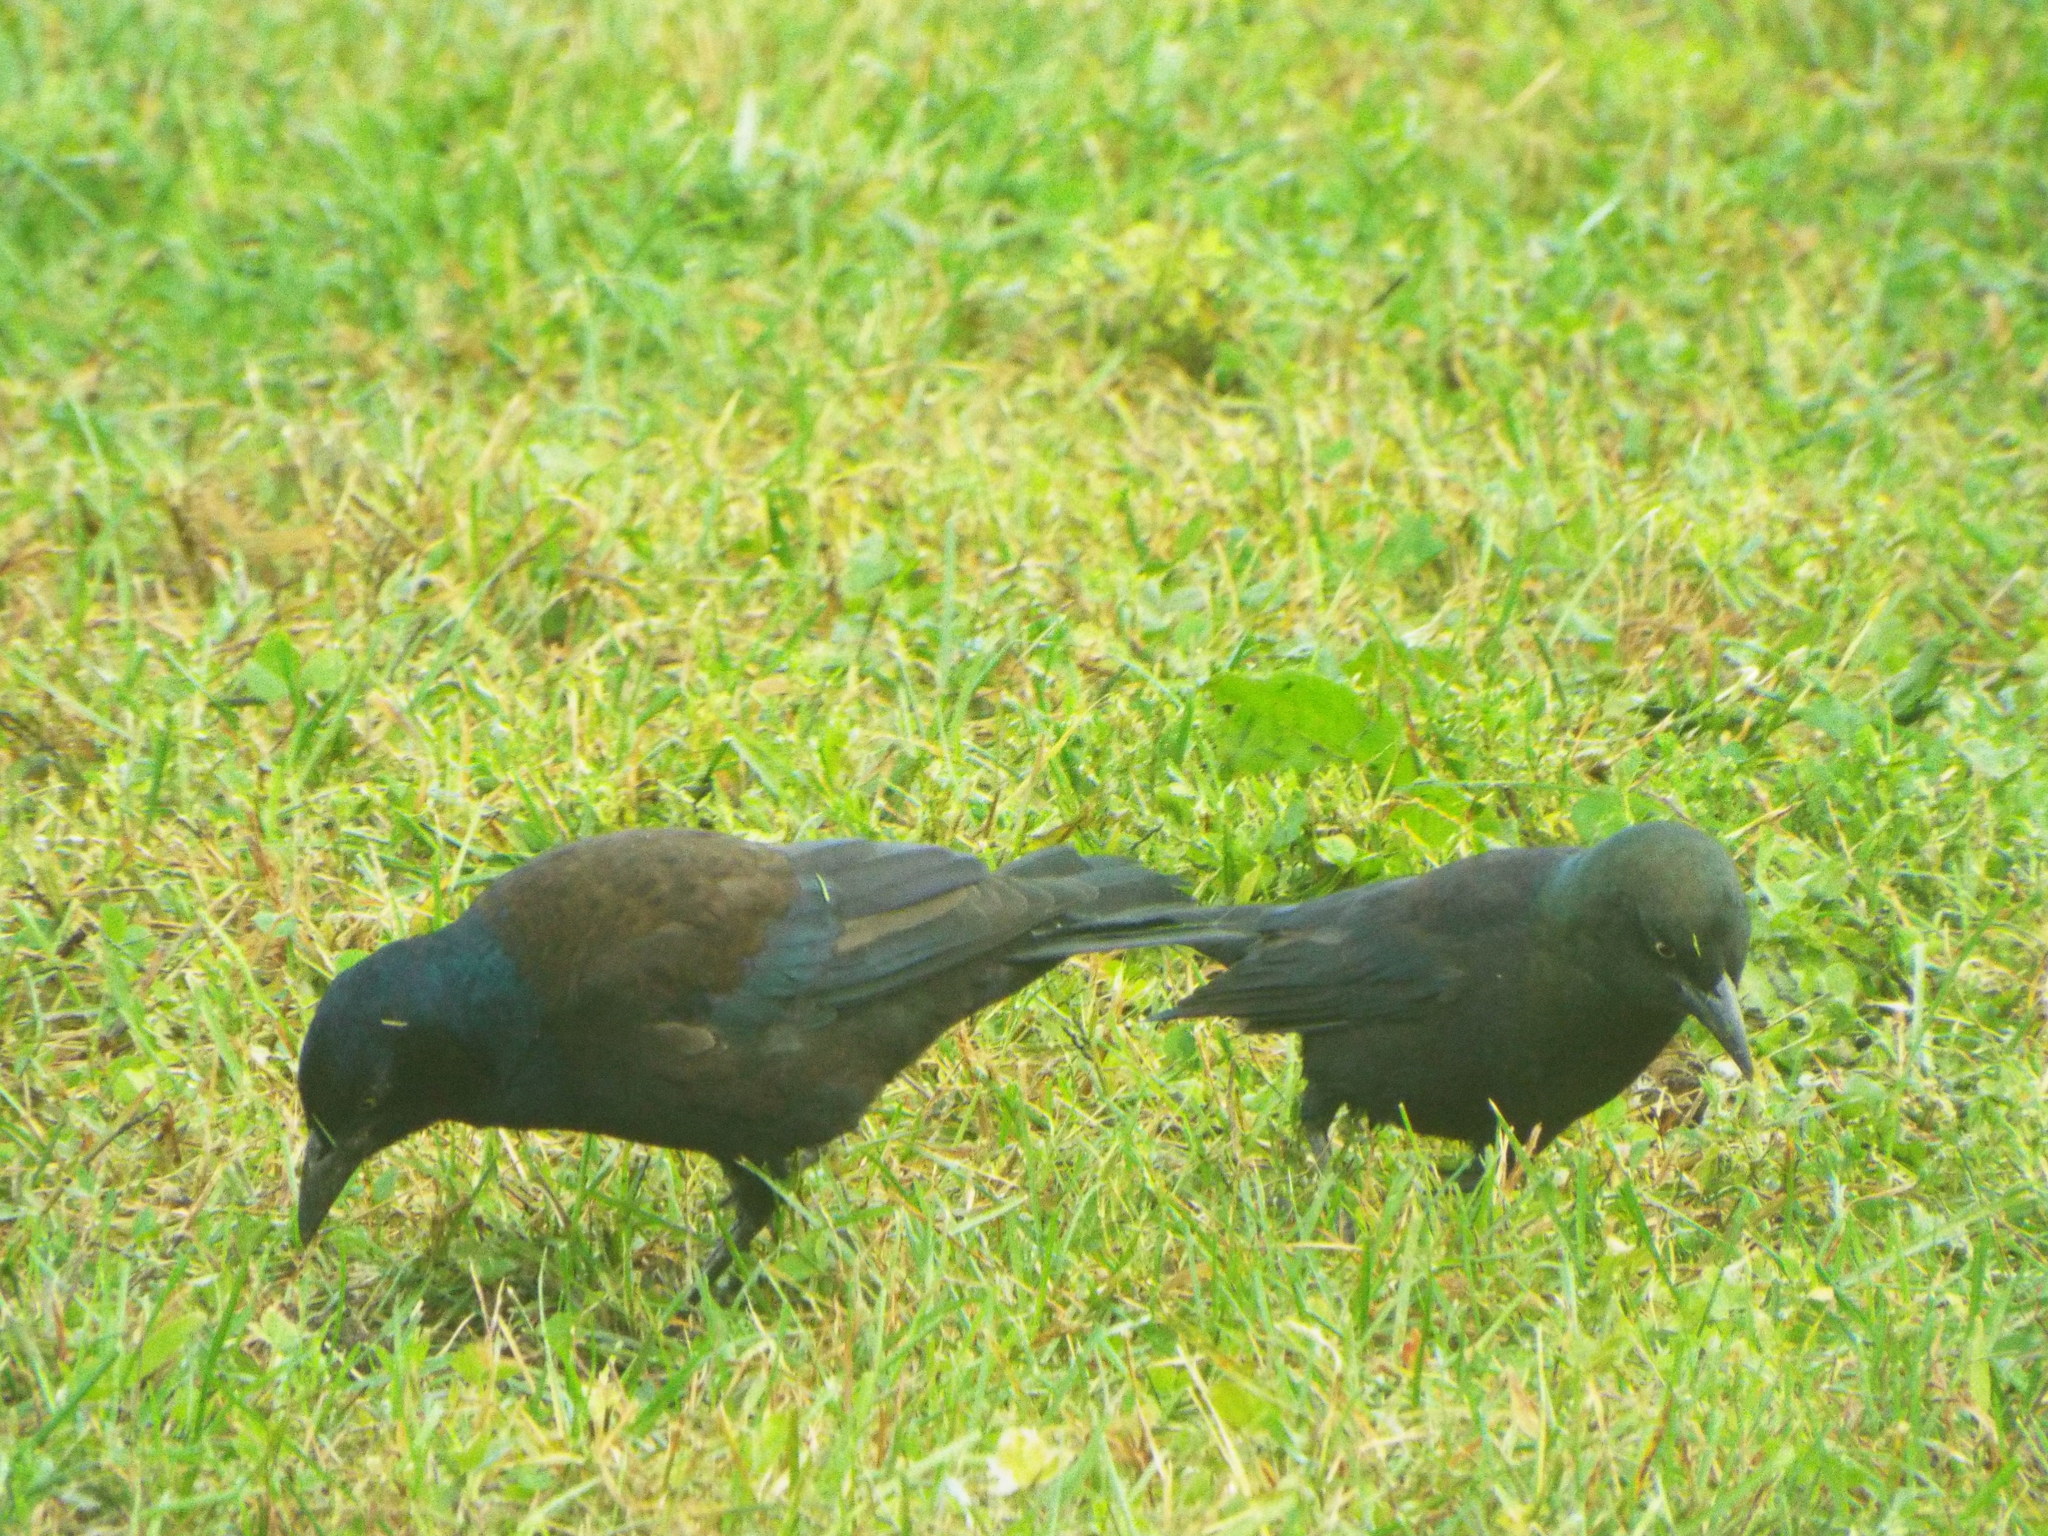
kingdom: Animalia
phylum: Chordata
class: Aves
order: Passeriformes
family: Icteridae
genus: Quiscalus
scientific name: Quiscalus quiscula
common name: Common grackle
